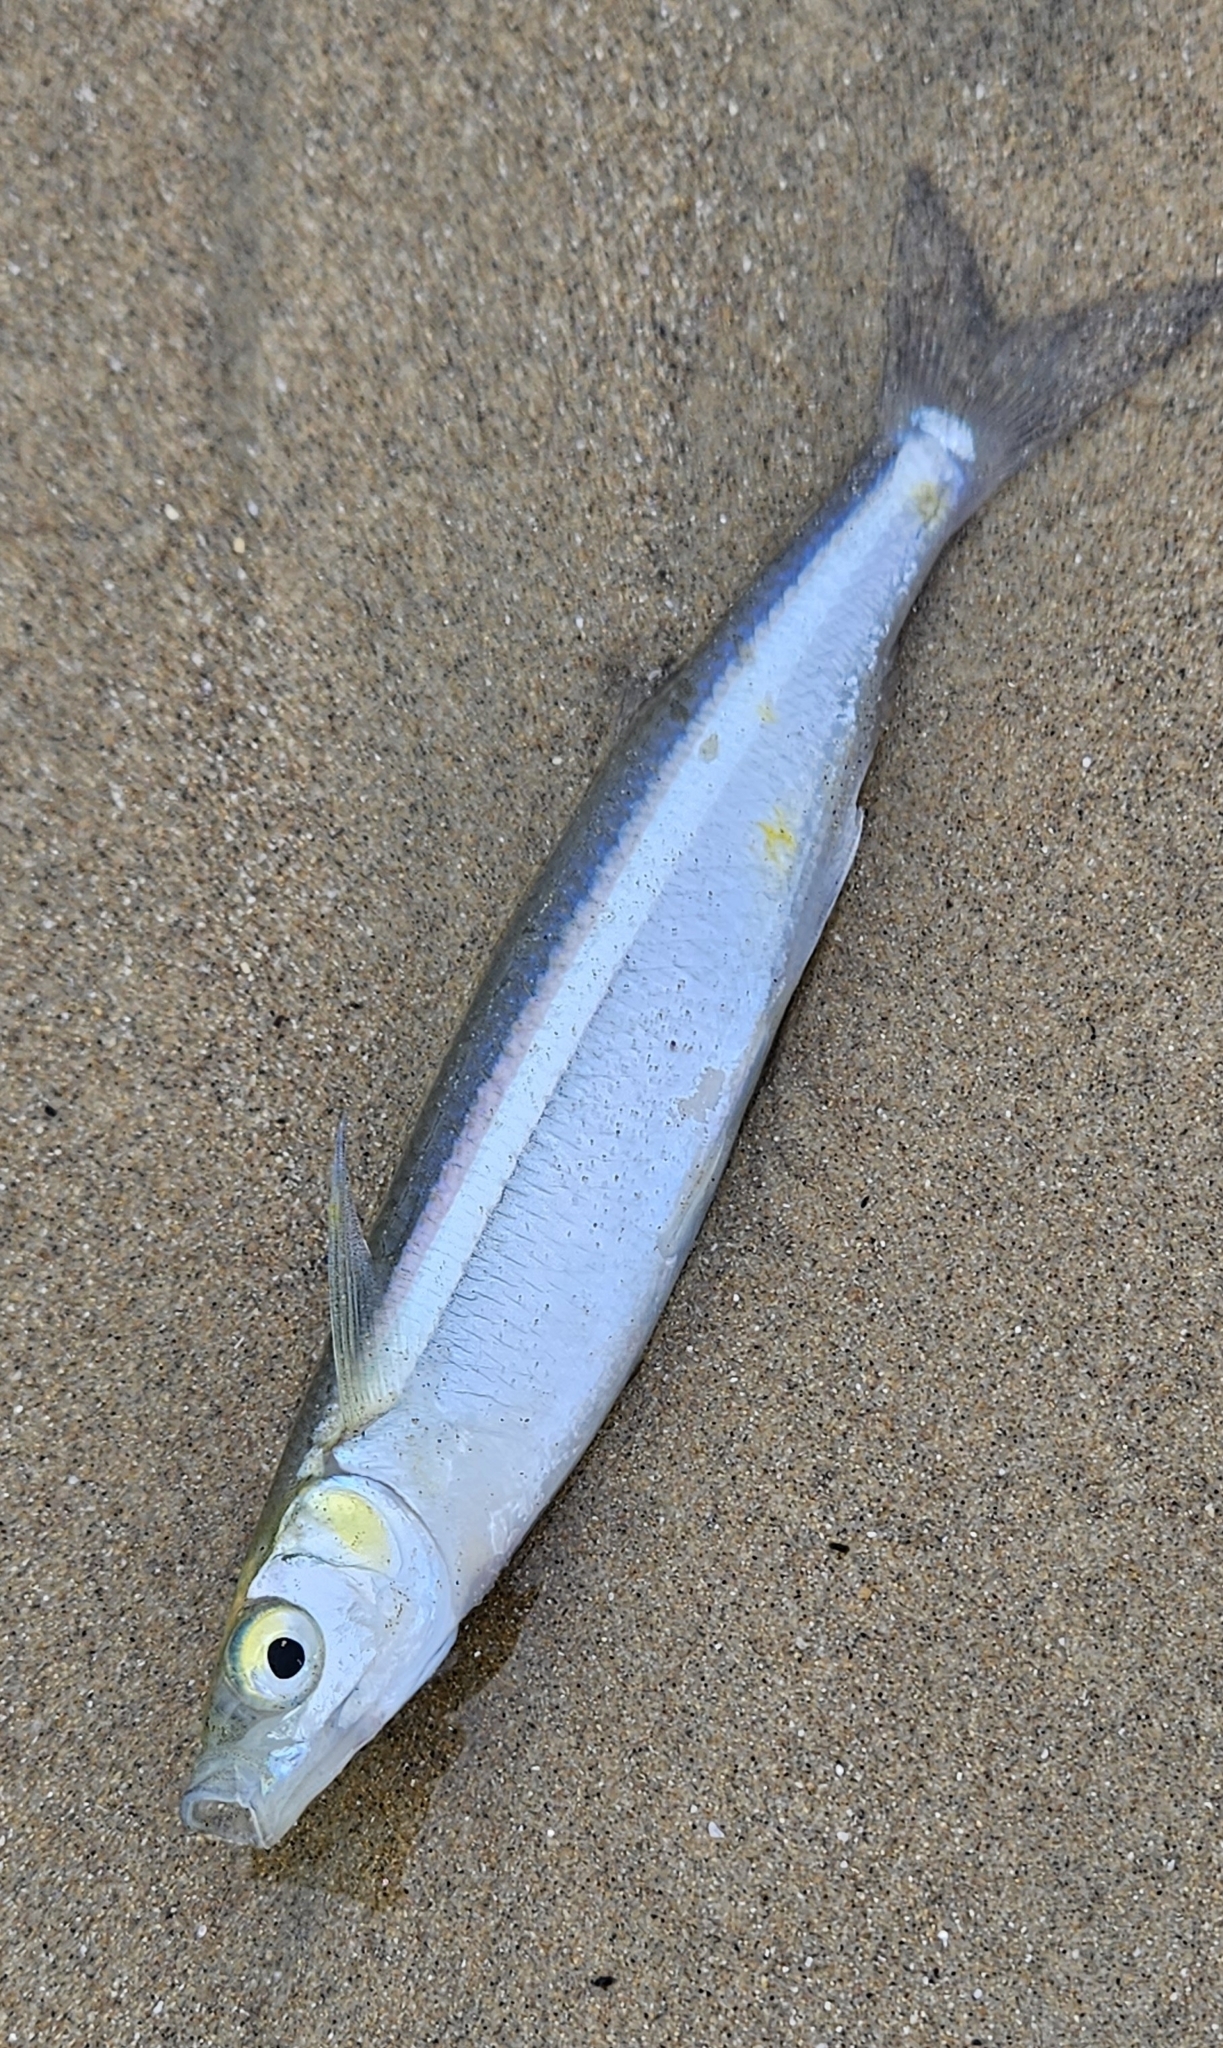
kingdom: Animalia
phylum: Chordata
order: Atheriniformes
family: Atherinopsidae
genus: Atherinops
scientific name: Atherinops affinis
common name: Topsmelt
